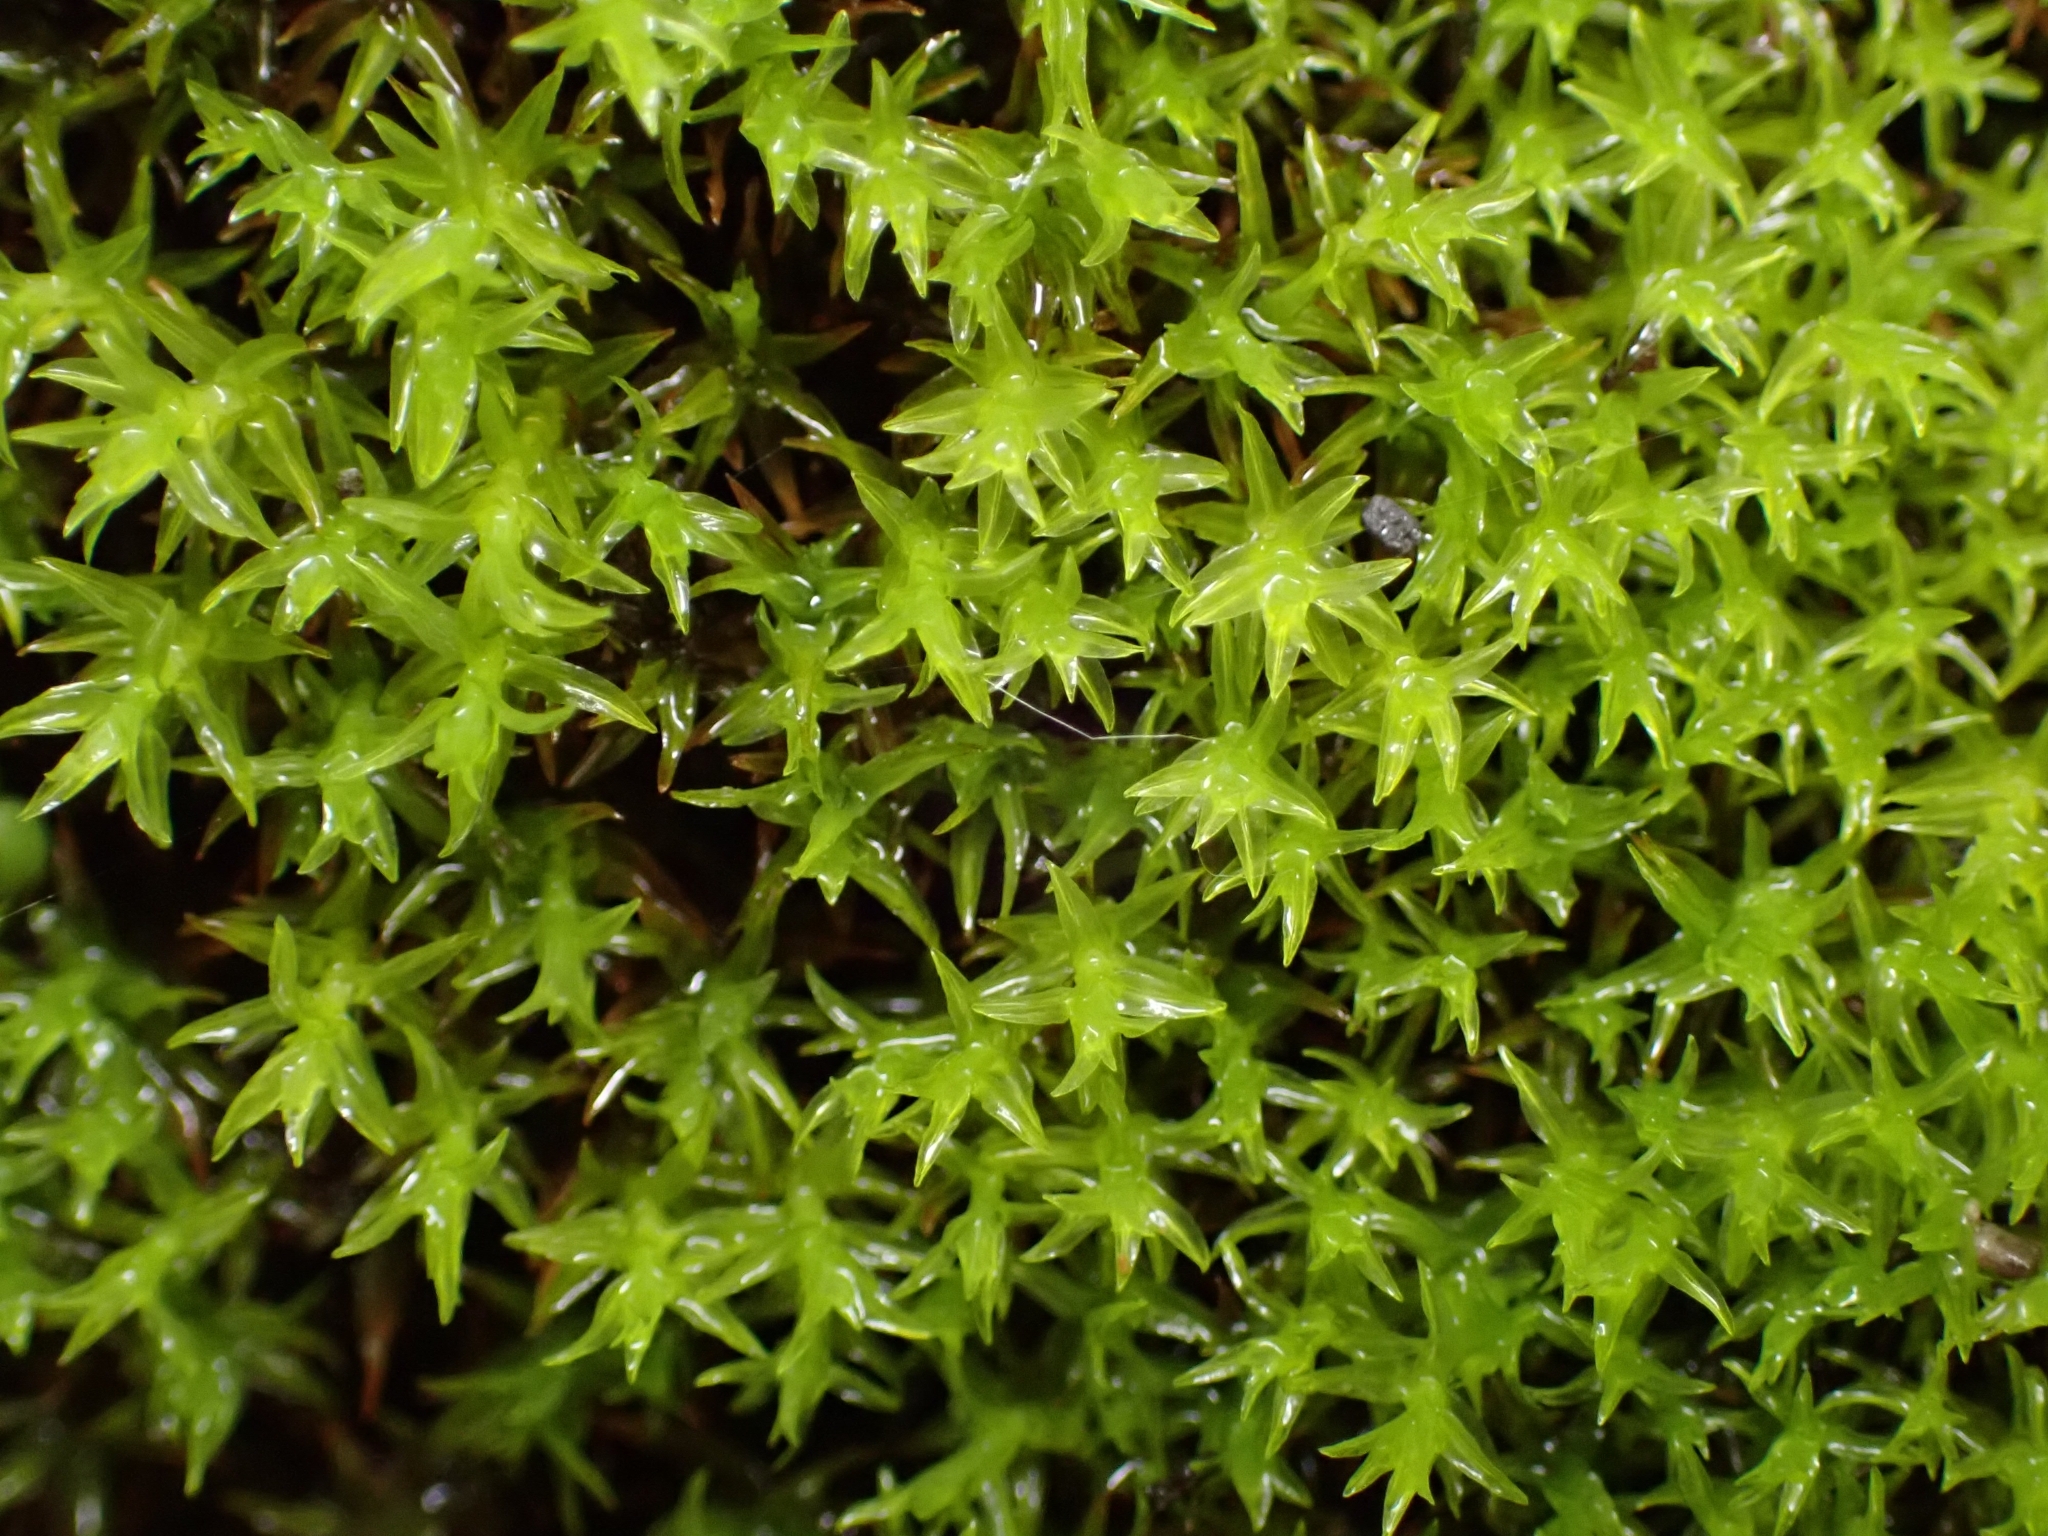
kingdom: Plantae
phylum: Bryophyta
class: Bryopsida
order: Dicranales
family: Aongstroemiaceae
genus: Dichodontium
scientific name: Dichodontium pellucidum
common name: Transparent fork moss
